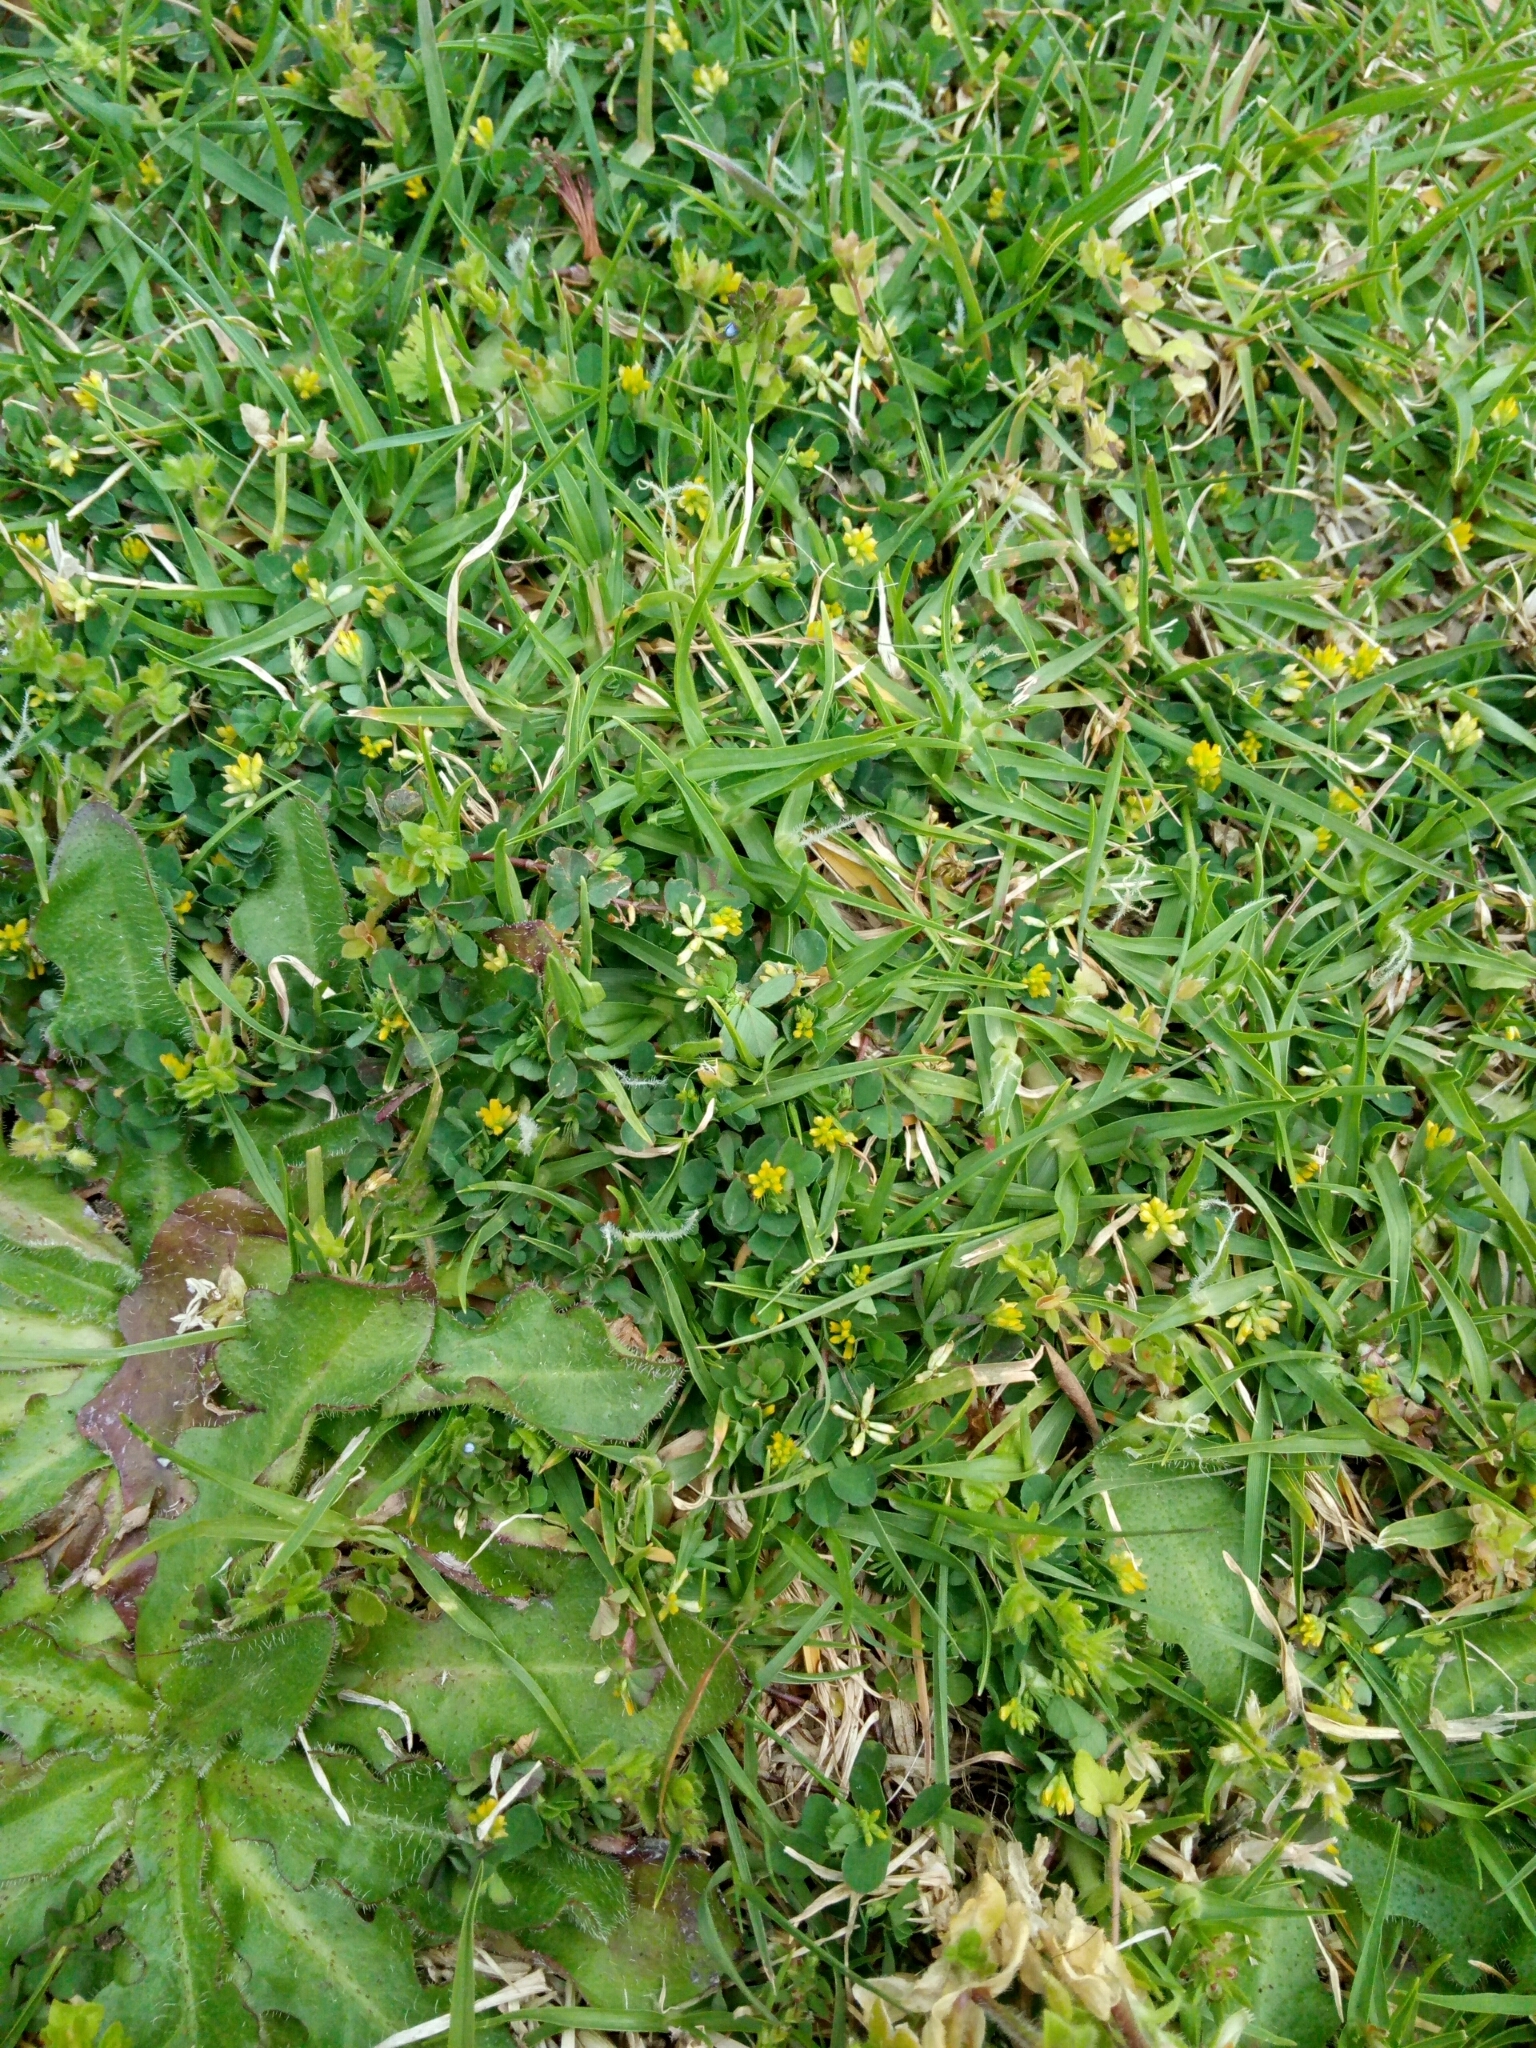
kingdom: Plantae
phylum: Tracheophyta
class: Magnoliopsida
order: Fabales
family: Fabaceae
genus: Trifolium
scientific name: Trifolium dubium
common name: Suckling clover
